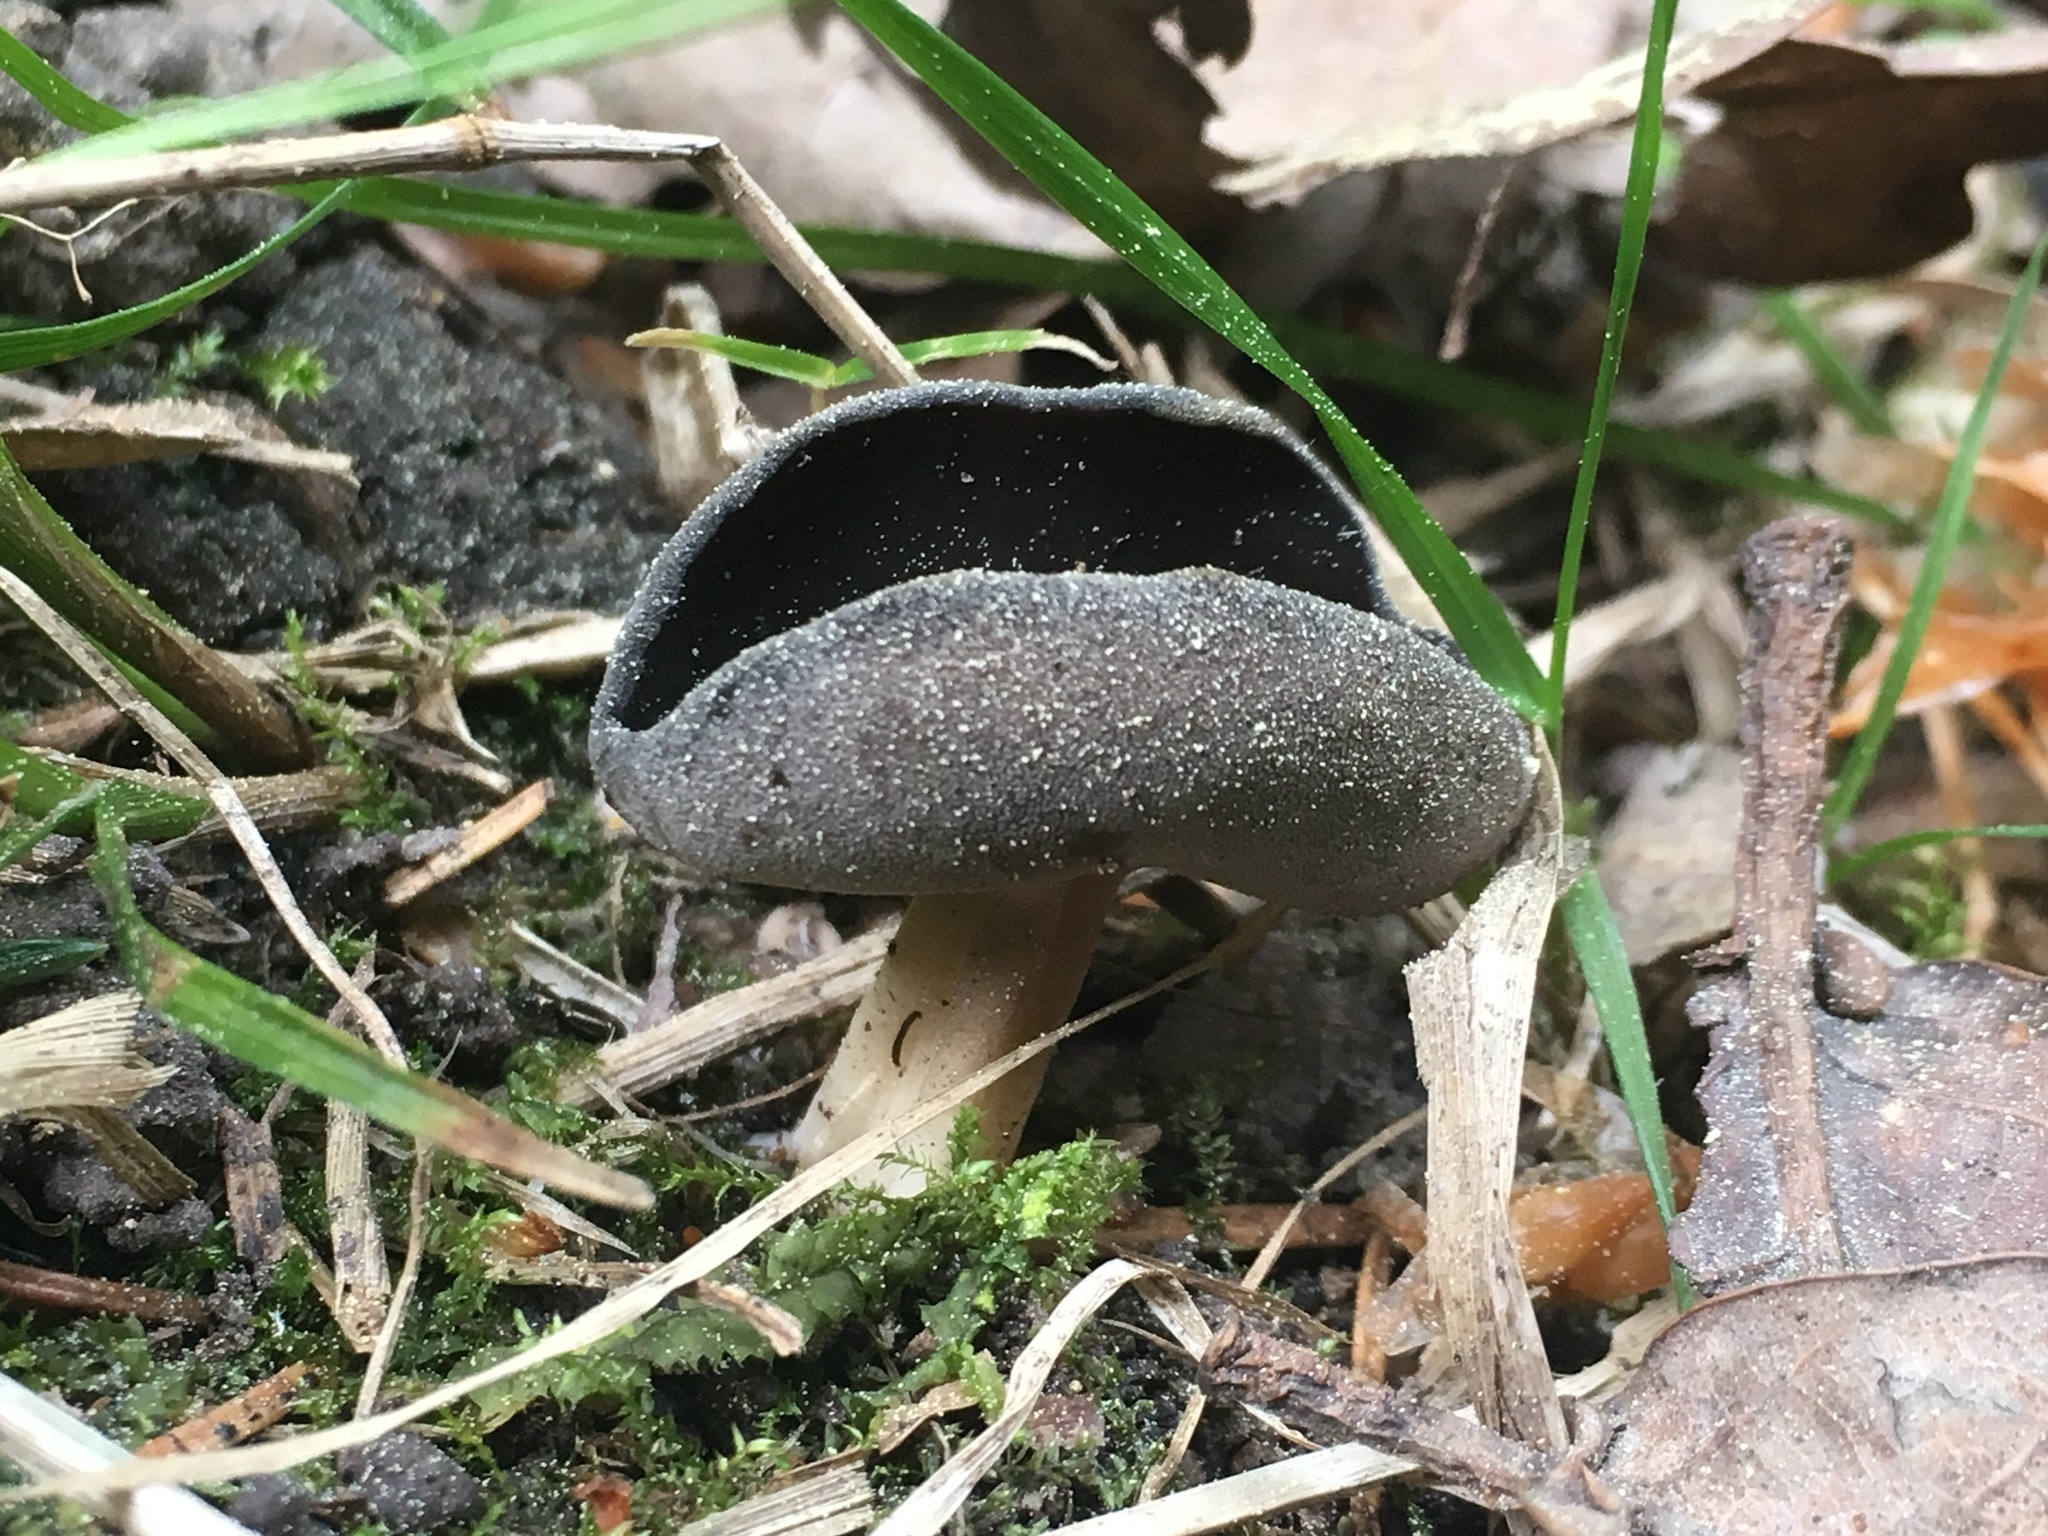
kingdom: Fungi
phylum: Ascomycota
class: Pezizomycetes
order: Pezizales
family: Helvellaceae
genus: Helvella
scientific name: Helvella solitaria
